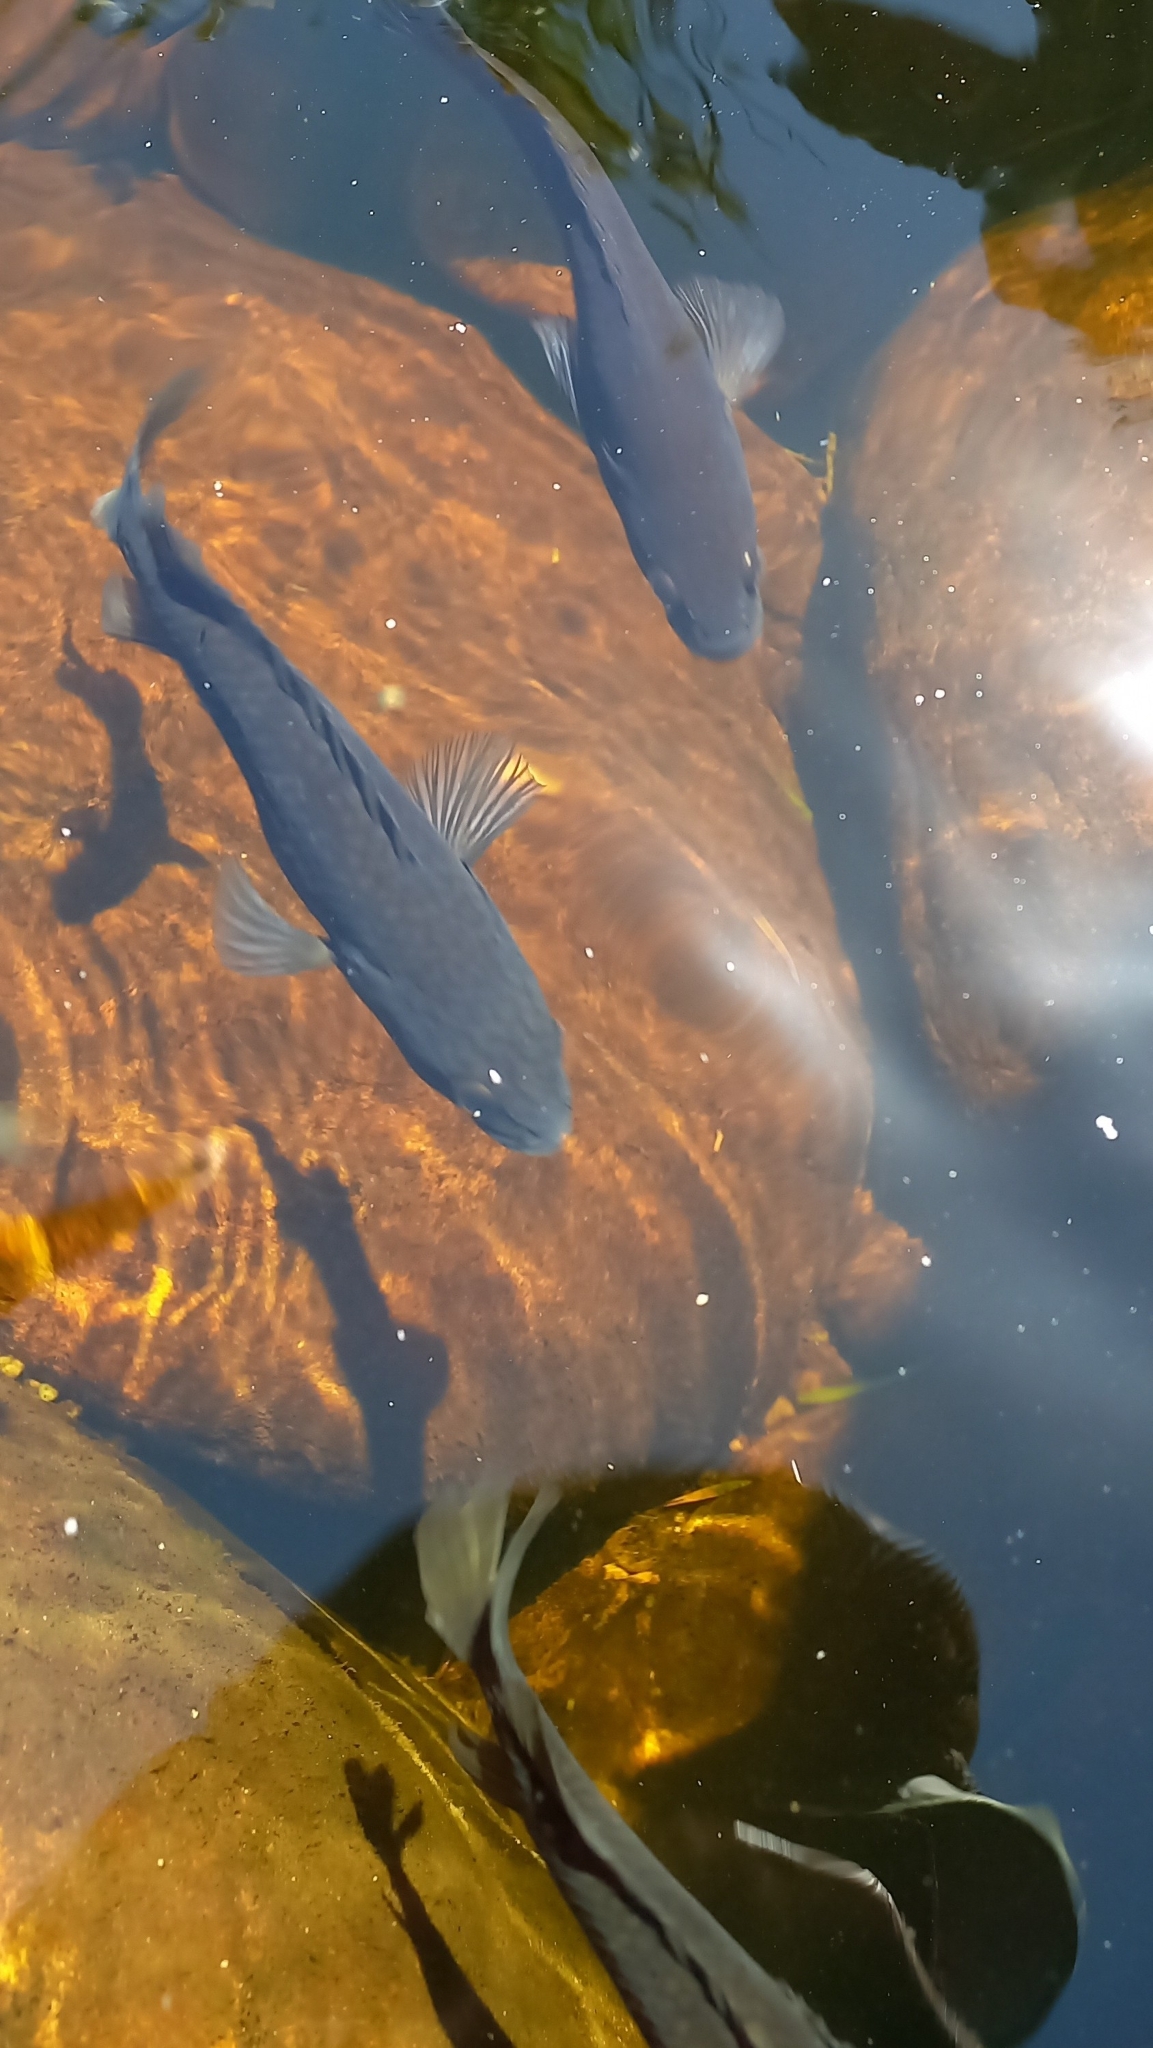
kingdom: Animalia
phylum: Chordata
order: Perciformes
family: Anabantidae
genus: Sandelia
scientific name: Sandelia capensis
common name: Cape kurper
